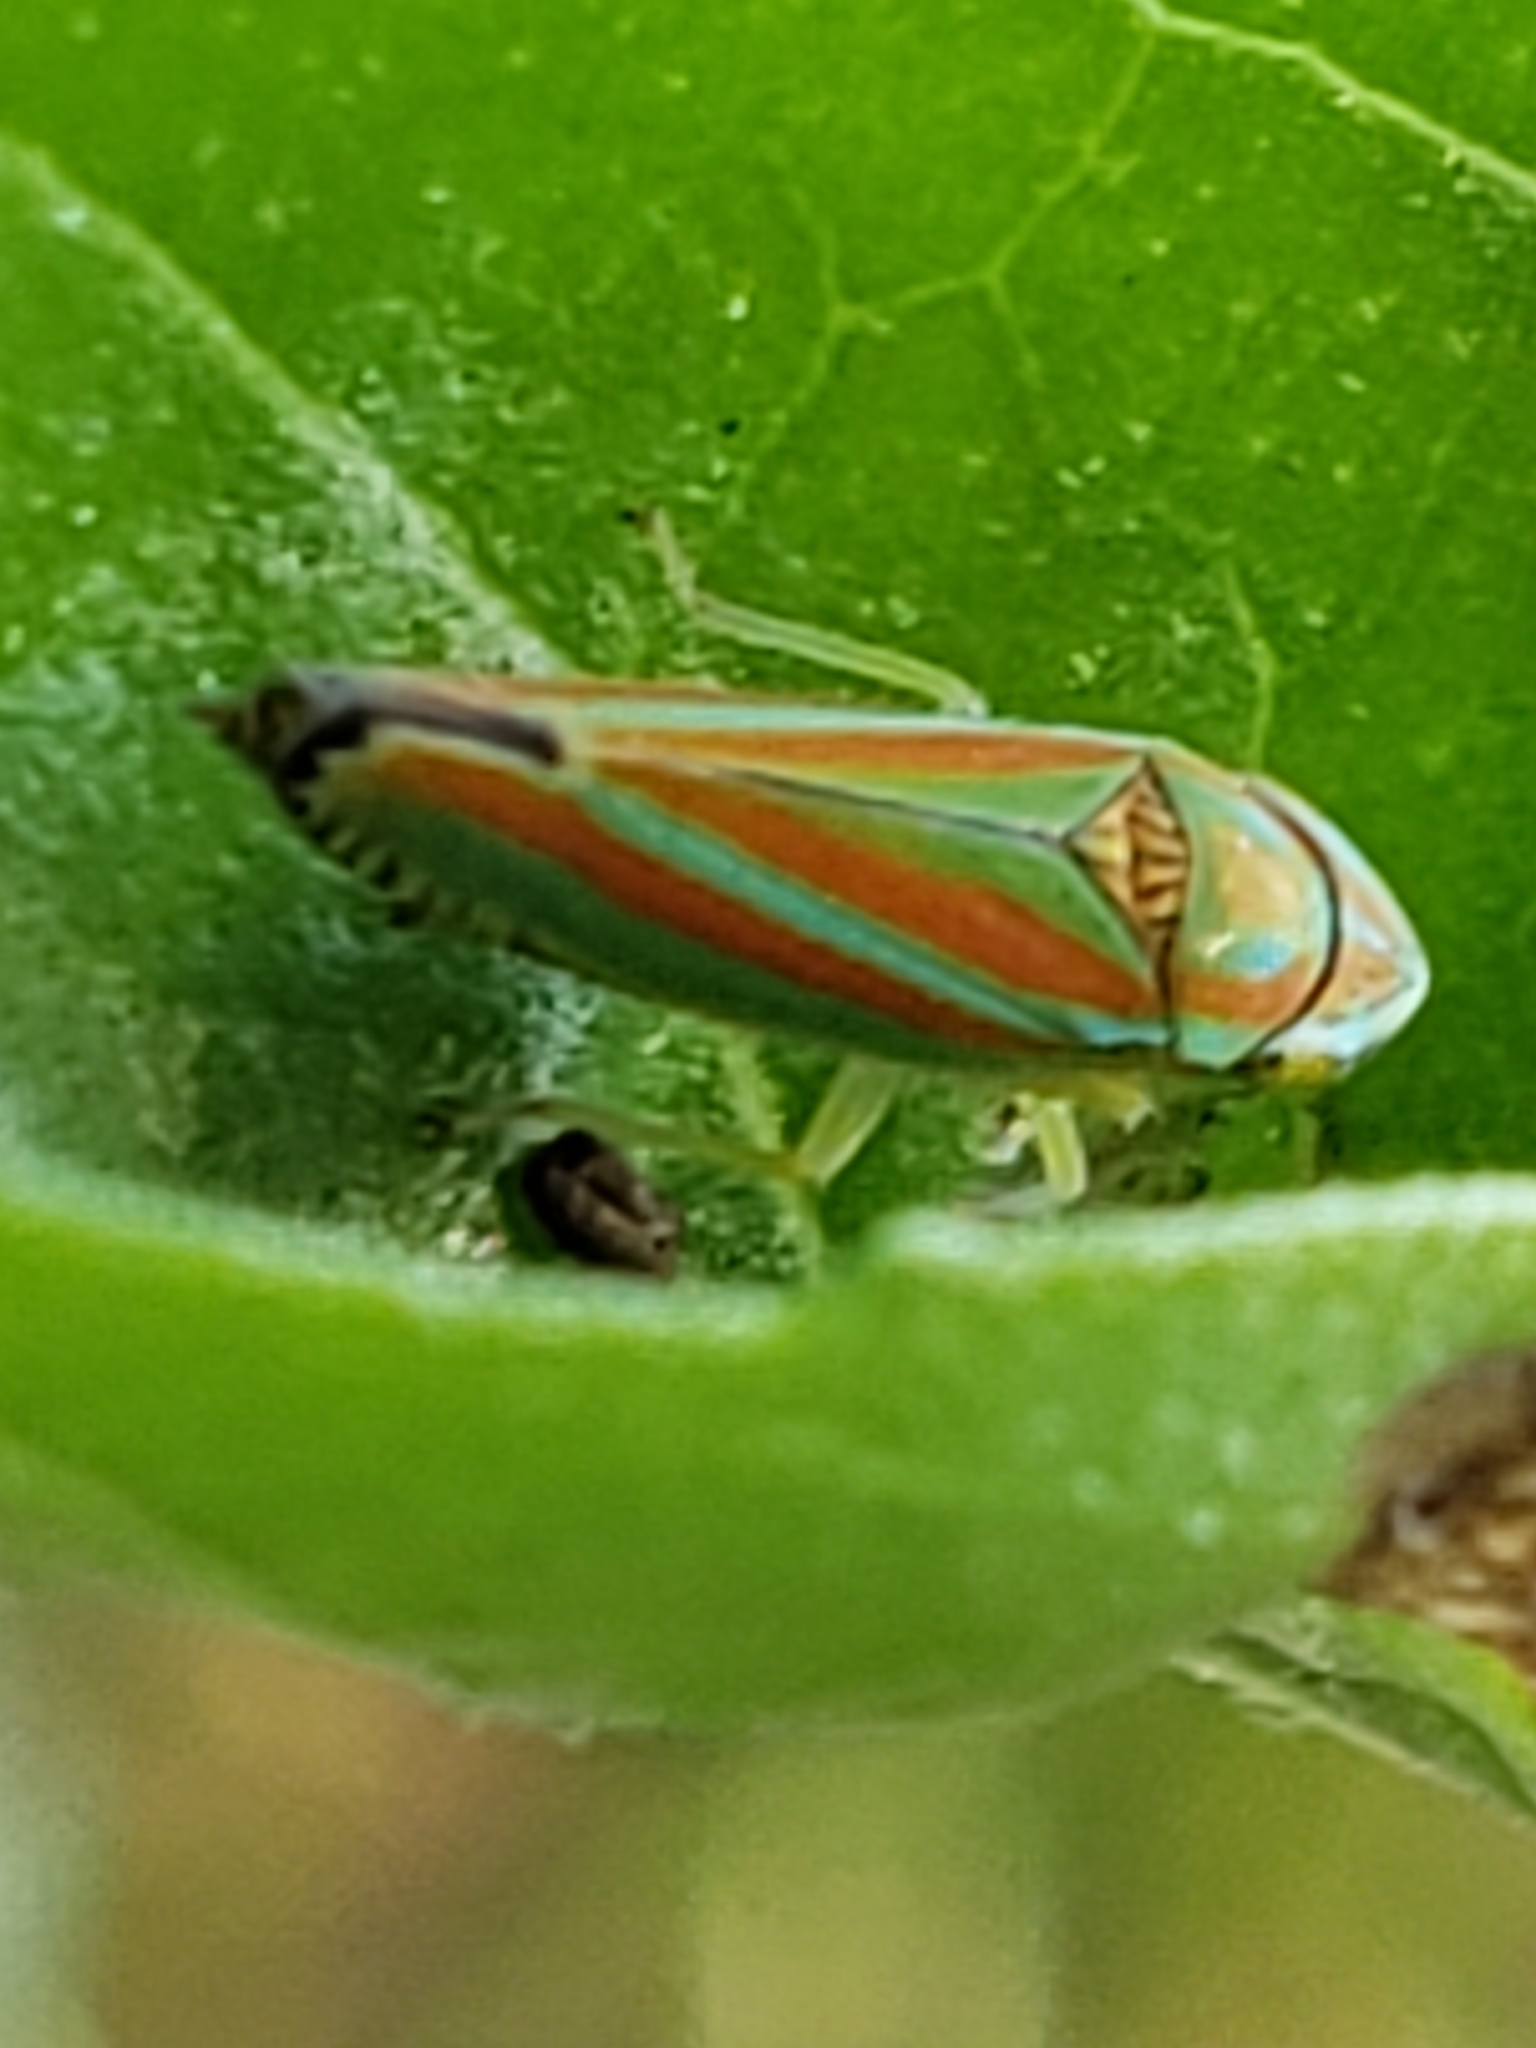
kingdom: Animalia
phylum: Arthropoda
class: Insecta
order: Hemiptera
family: Cicadellidae
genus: Graphocephala
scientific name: Graphocephala versuta
